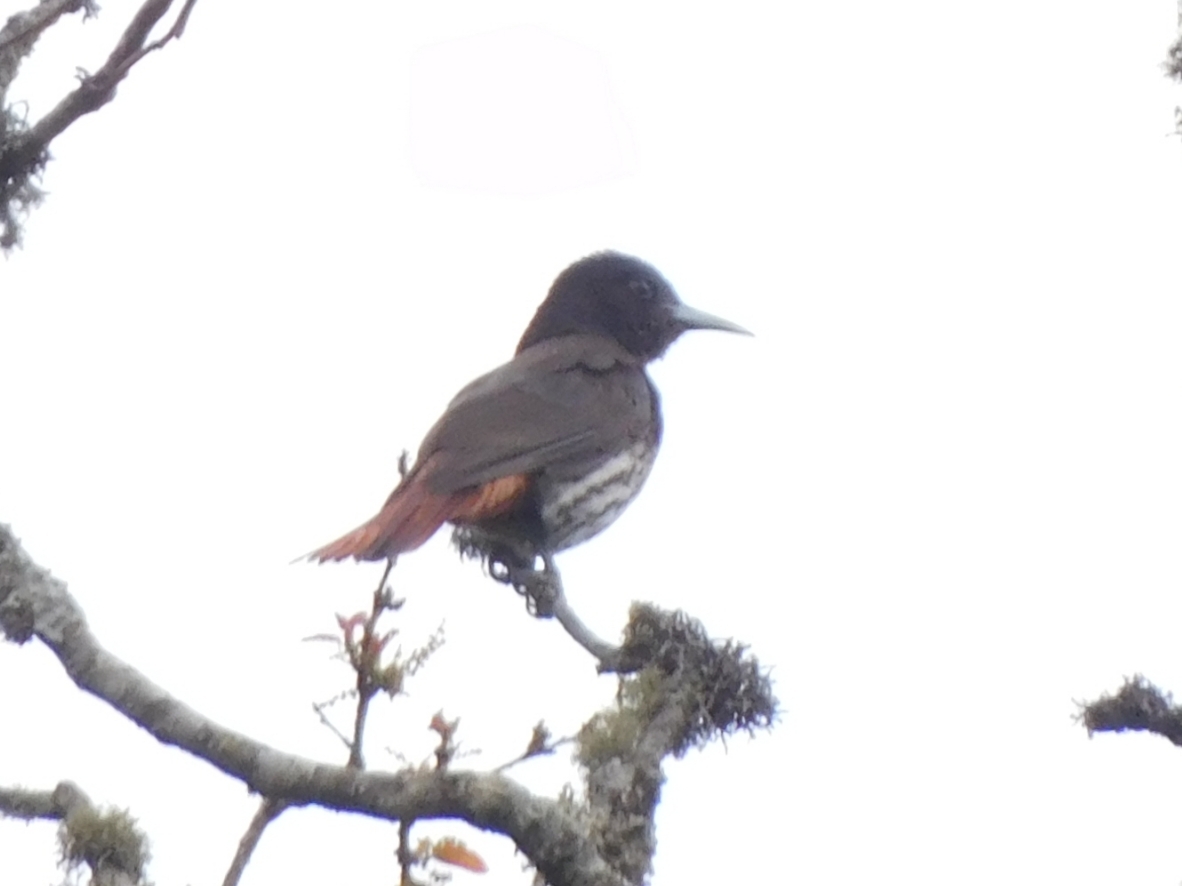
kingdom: Animalia
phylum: Chordata
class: Aves
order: Passeriformes
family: Oriolidae
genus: Oriolus
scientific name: Oriolus traillii
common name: Maroon oriole
